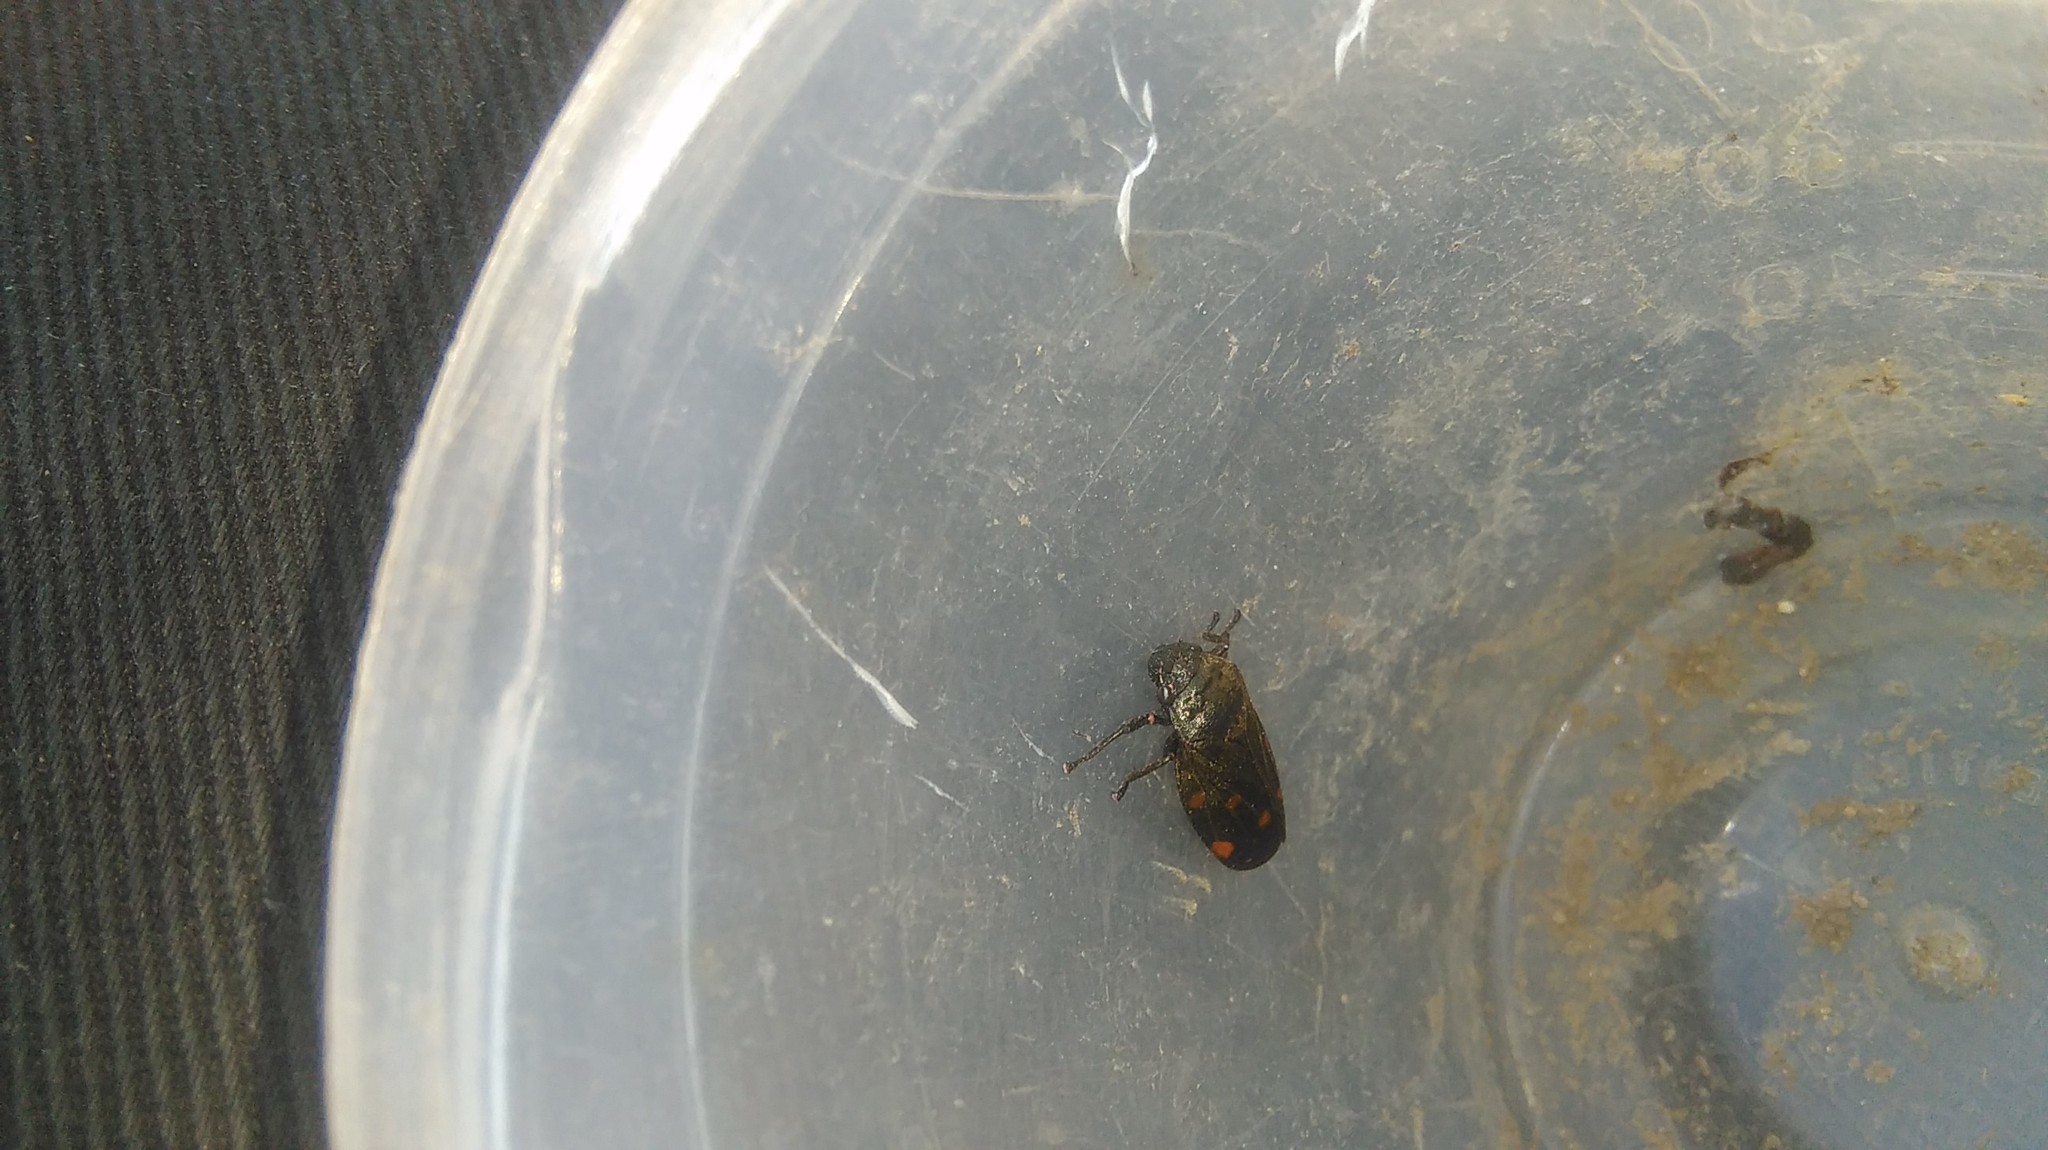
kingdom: Animalia
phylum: Arthropoda
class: Insecta
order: Hemiptera
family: Cercopidae
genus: Kanaima
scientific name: Kanaima fluvialis
